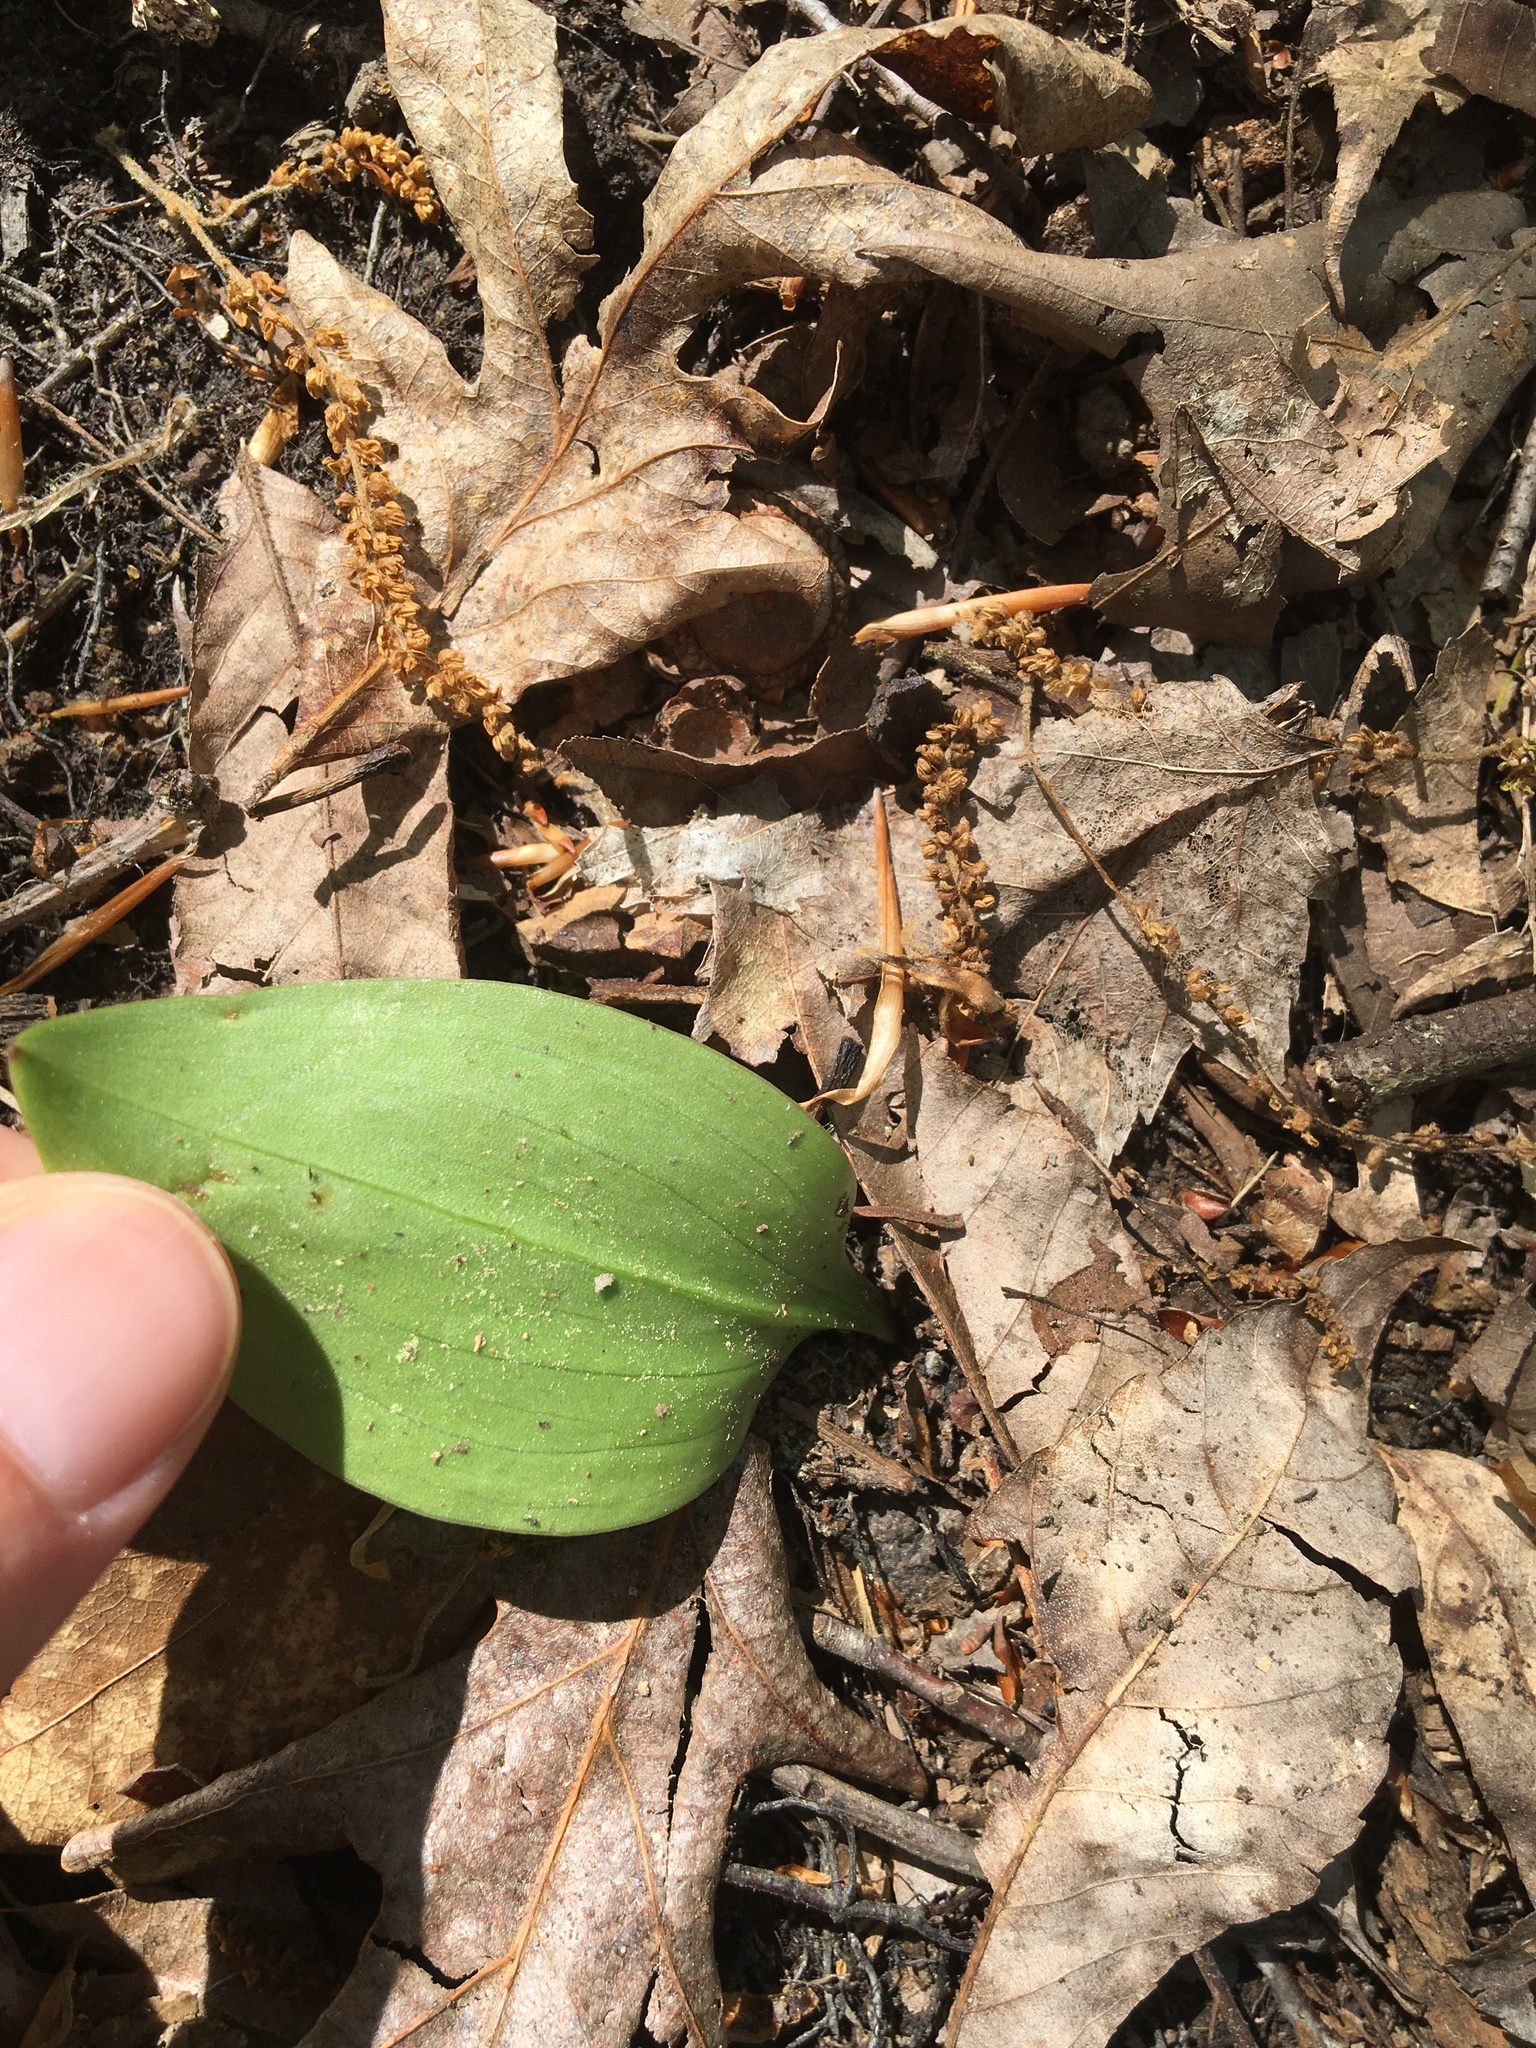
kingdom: Plantae
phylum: Tracheophyta
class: Liliopsida
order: Asparagales
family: Orchidaceae
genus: Malaxis
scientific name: Malaxis unifolia
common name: Green adder's-mouth
